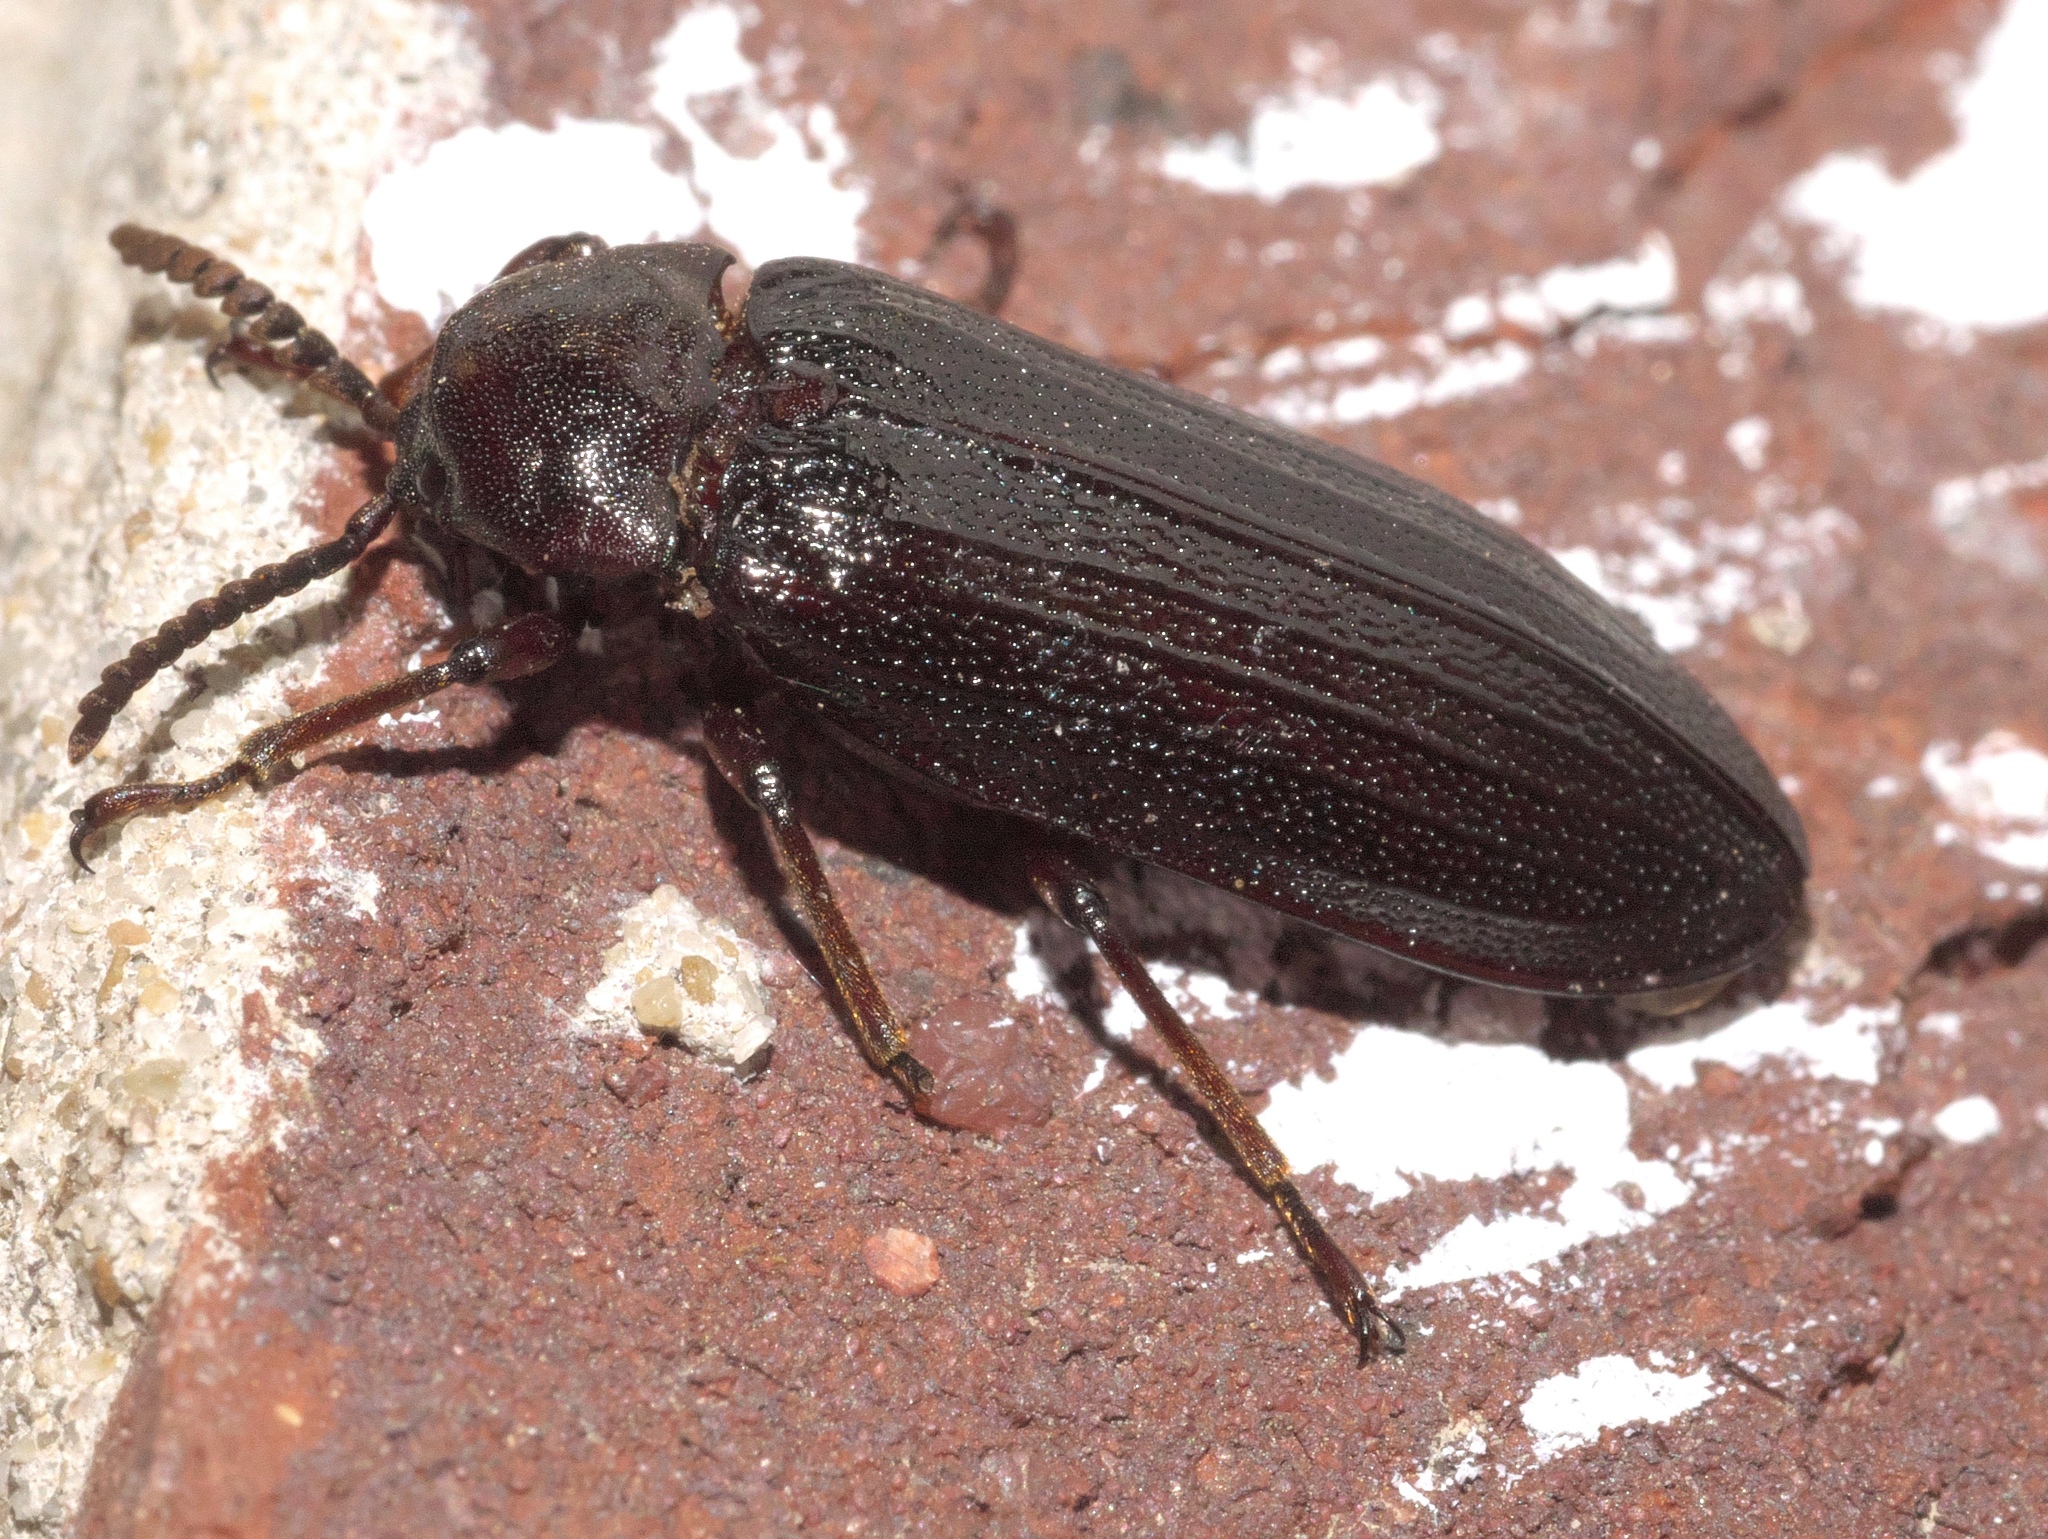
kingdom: Animalia
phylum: Arthropoda
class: Insecta
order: Coleoptera
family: Callirhipidae
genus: Zenoa
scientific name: Zenoa picea
